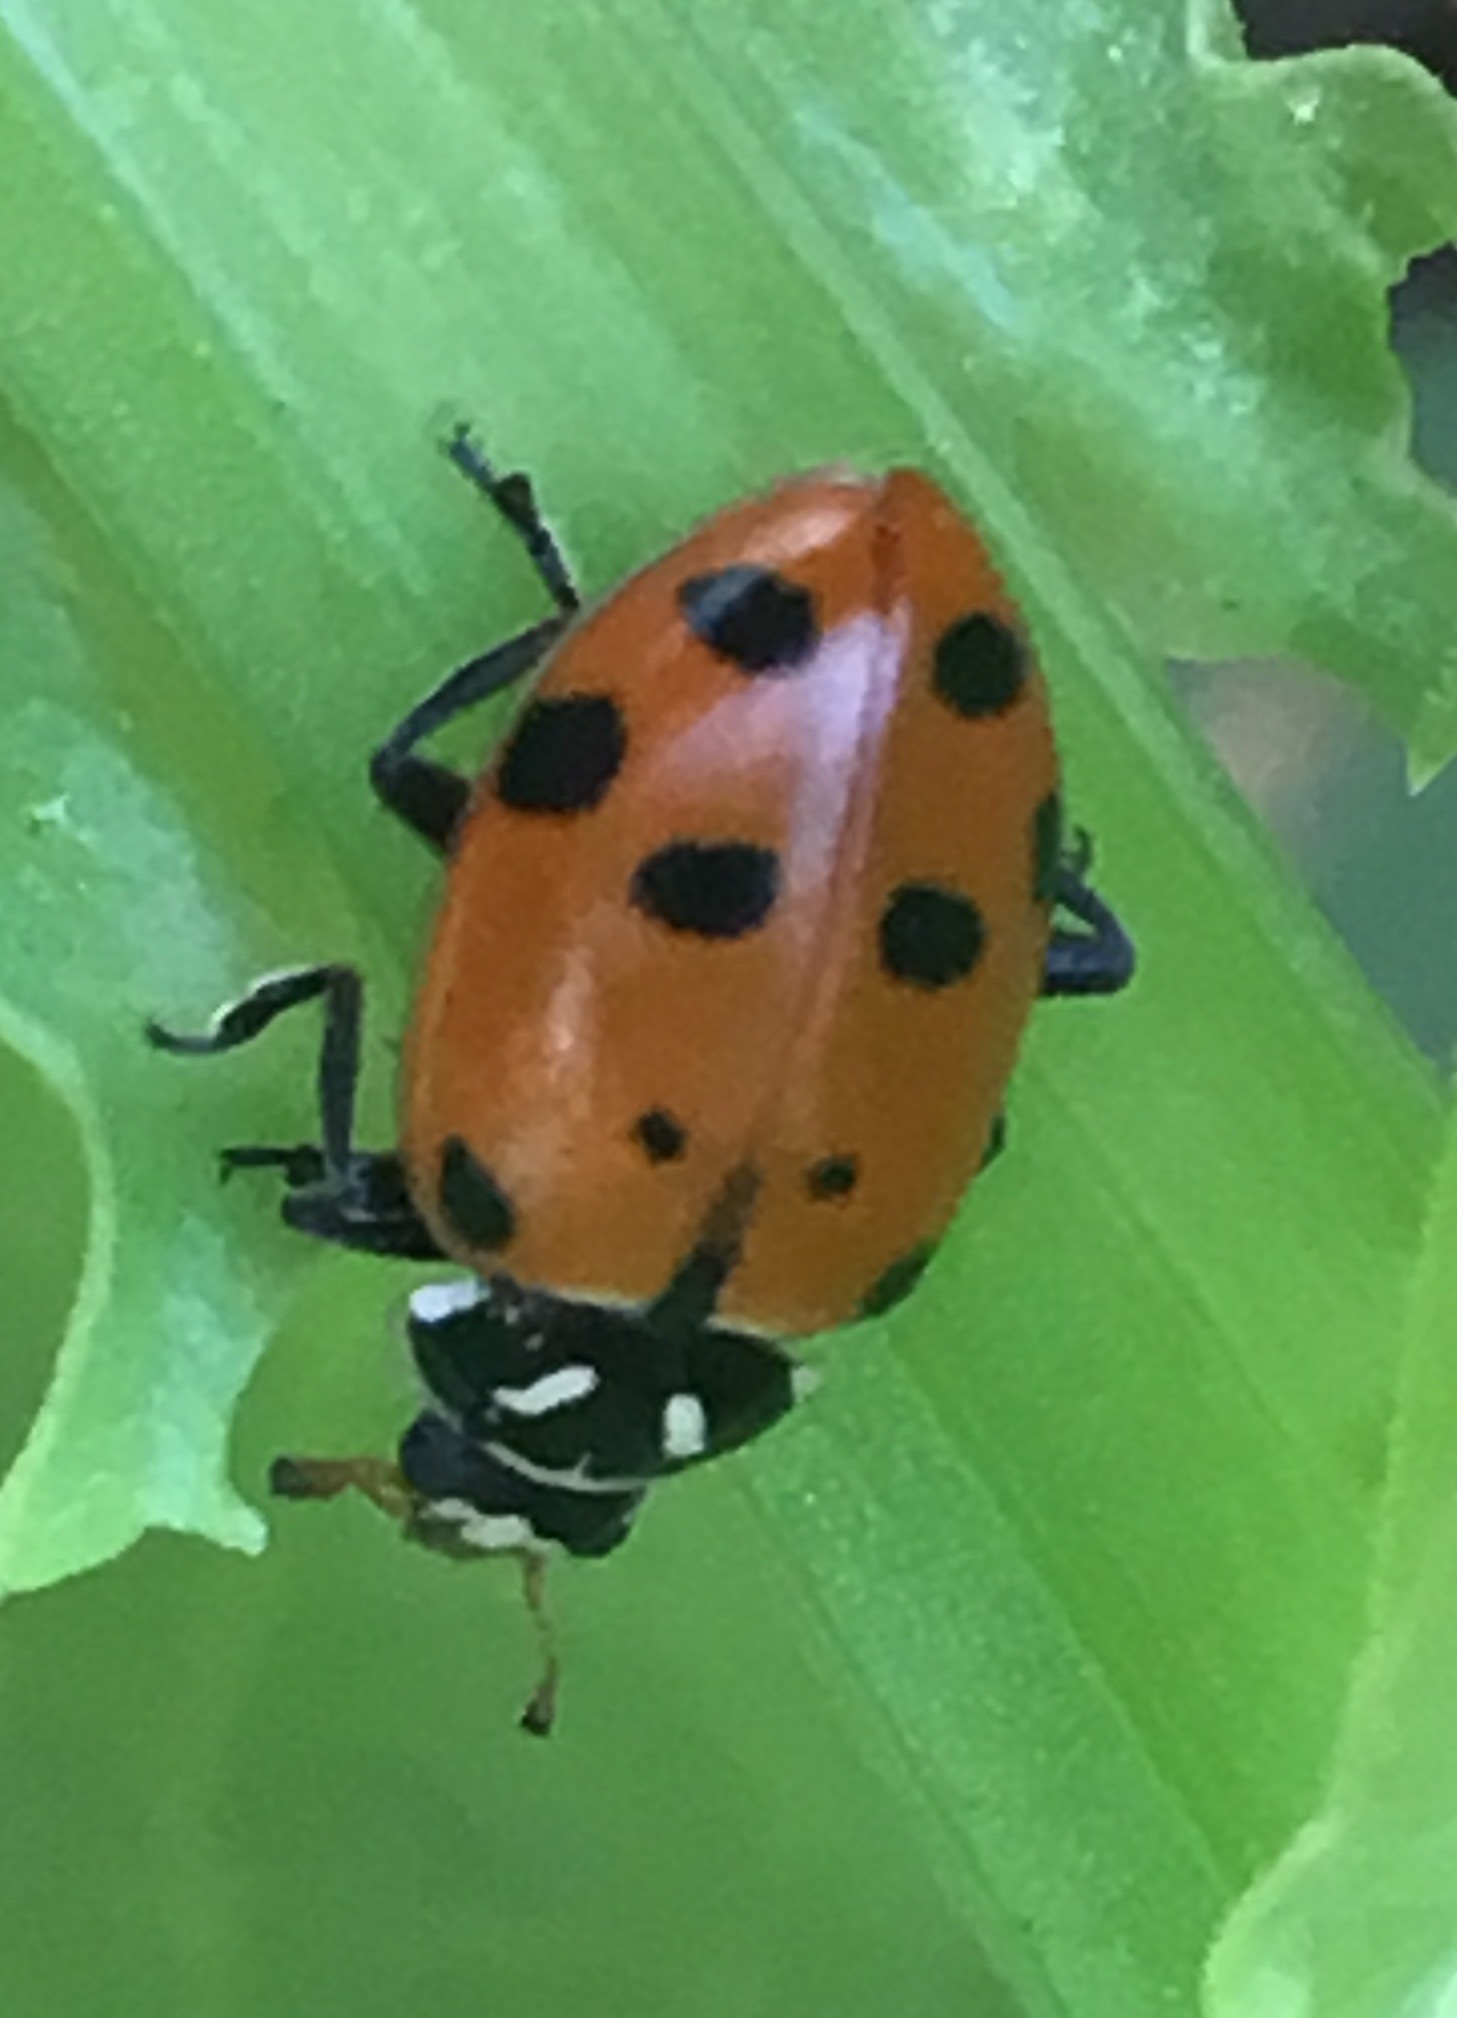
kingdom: Animalia
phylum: Arthropoda
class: Insecta
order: Coleoptera
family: Coccinellidae
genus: Hippodamia
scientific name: Hippodamia convergens
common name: Convergent lady beetle
